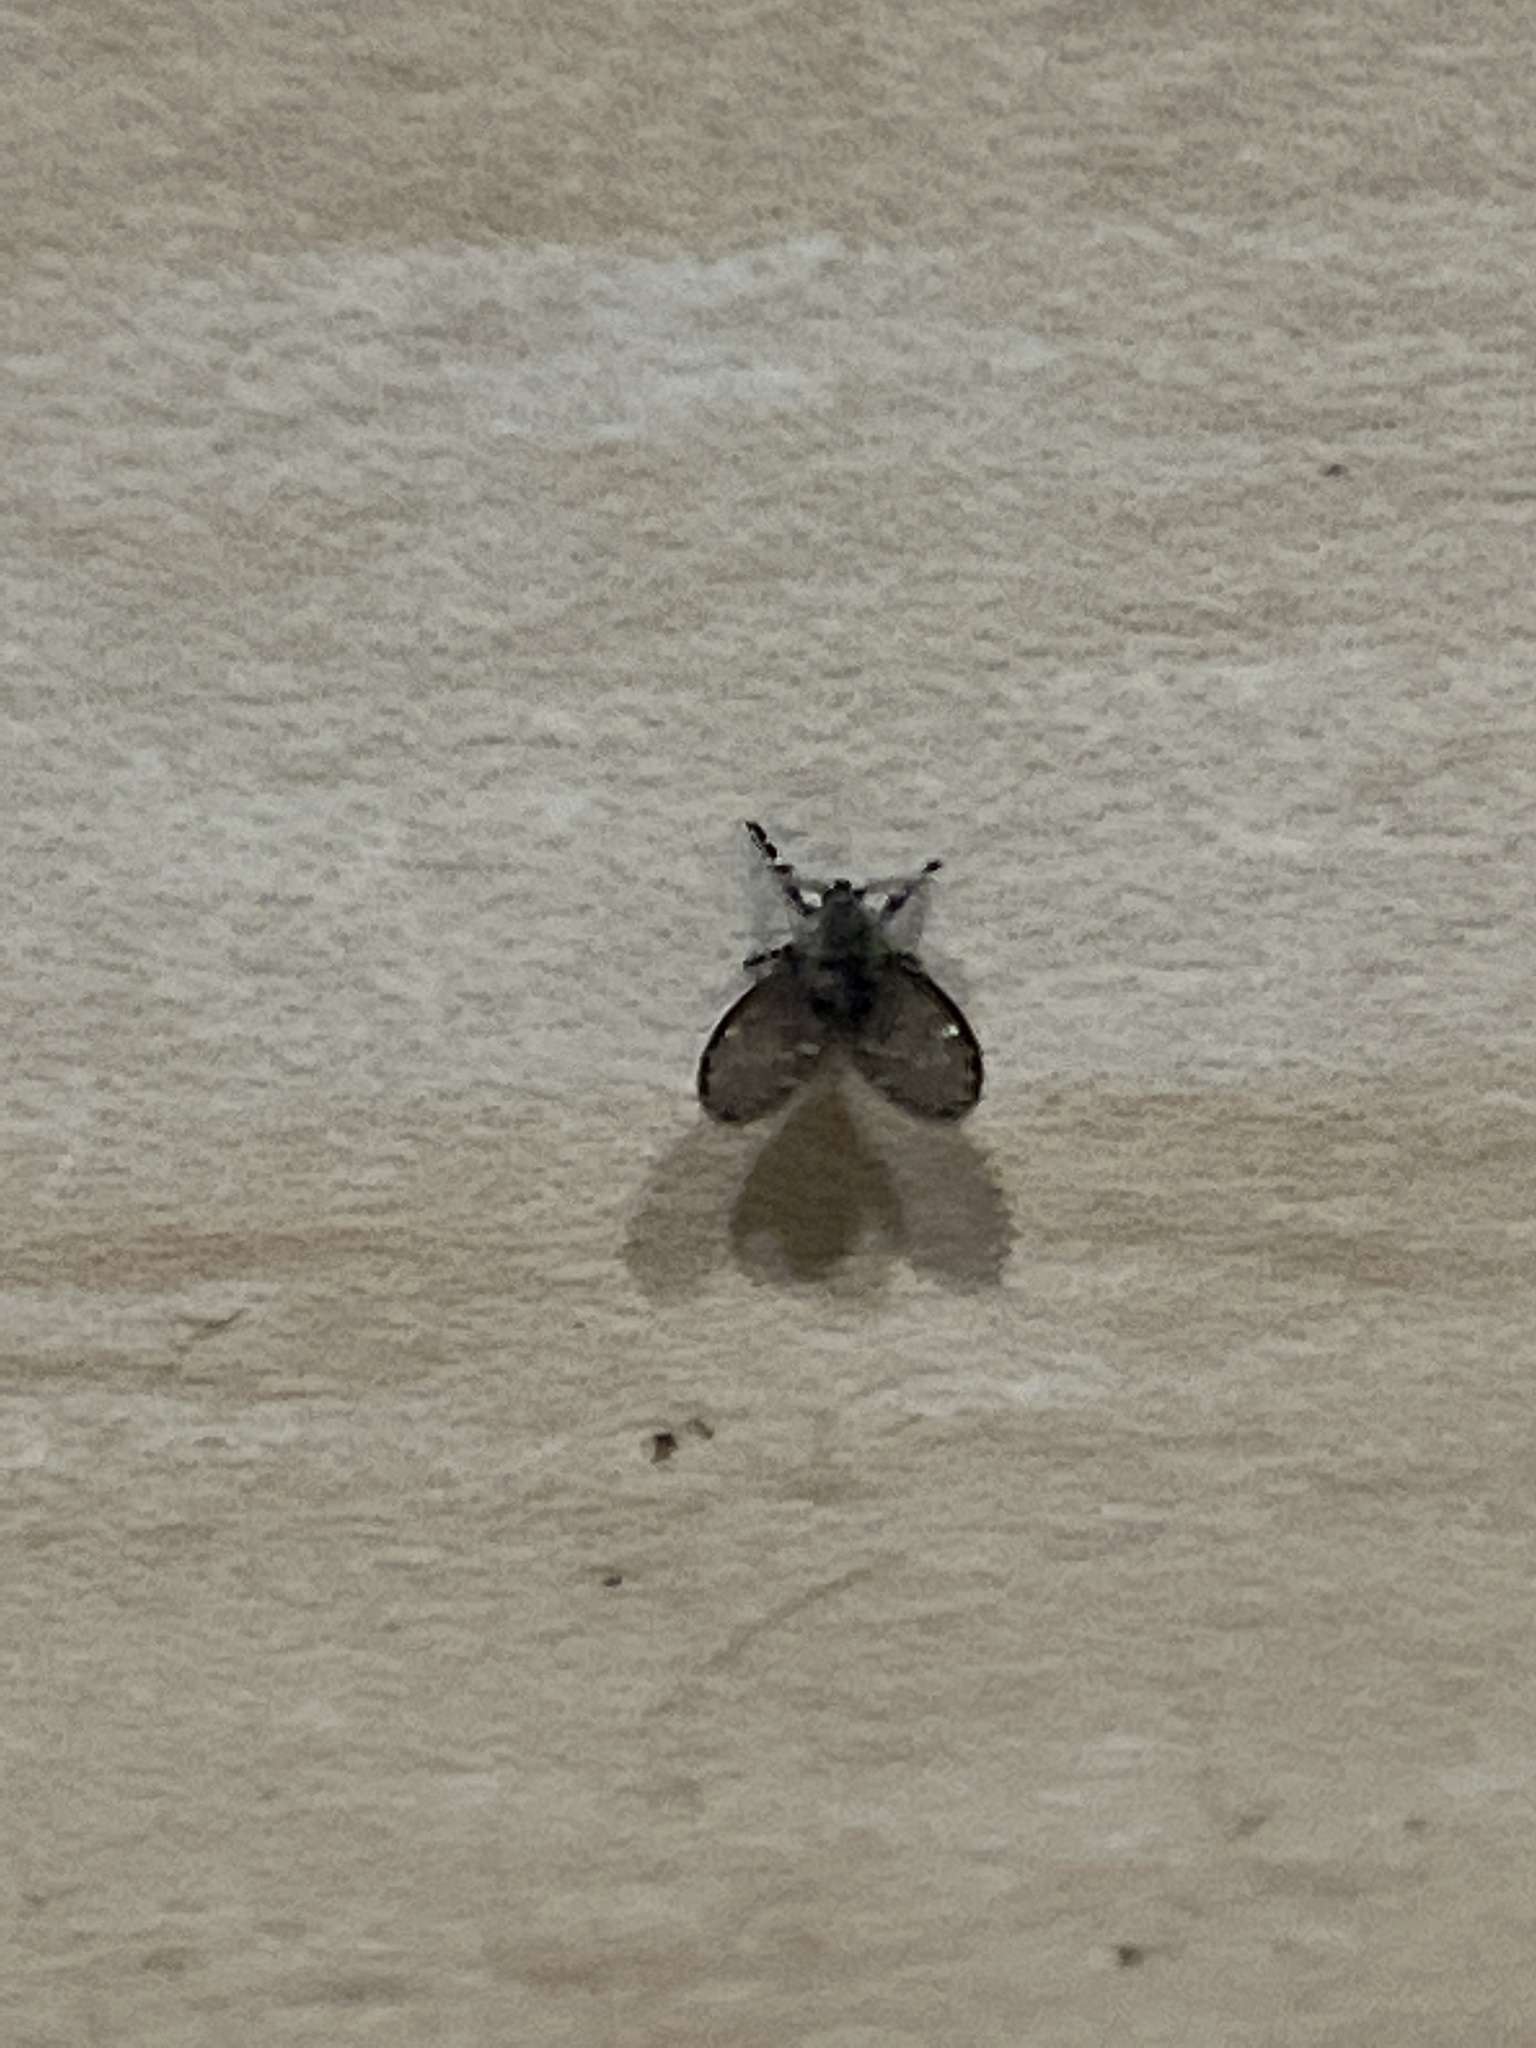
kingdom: Animalia
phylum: Arthropoda
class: Insecta
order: Diptera
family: Psychodidae
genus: Clogmia
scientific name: Clogmia albipunctatus
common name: White-spotted moth fly
